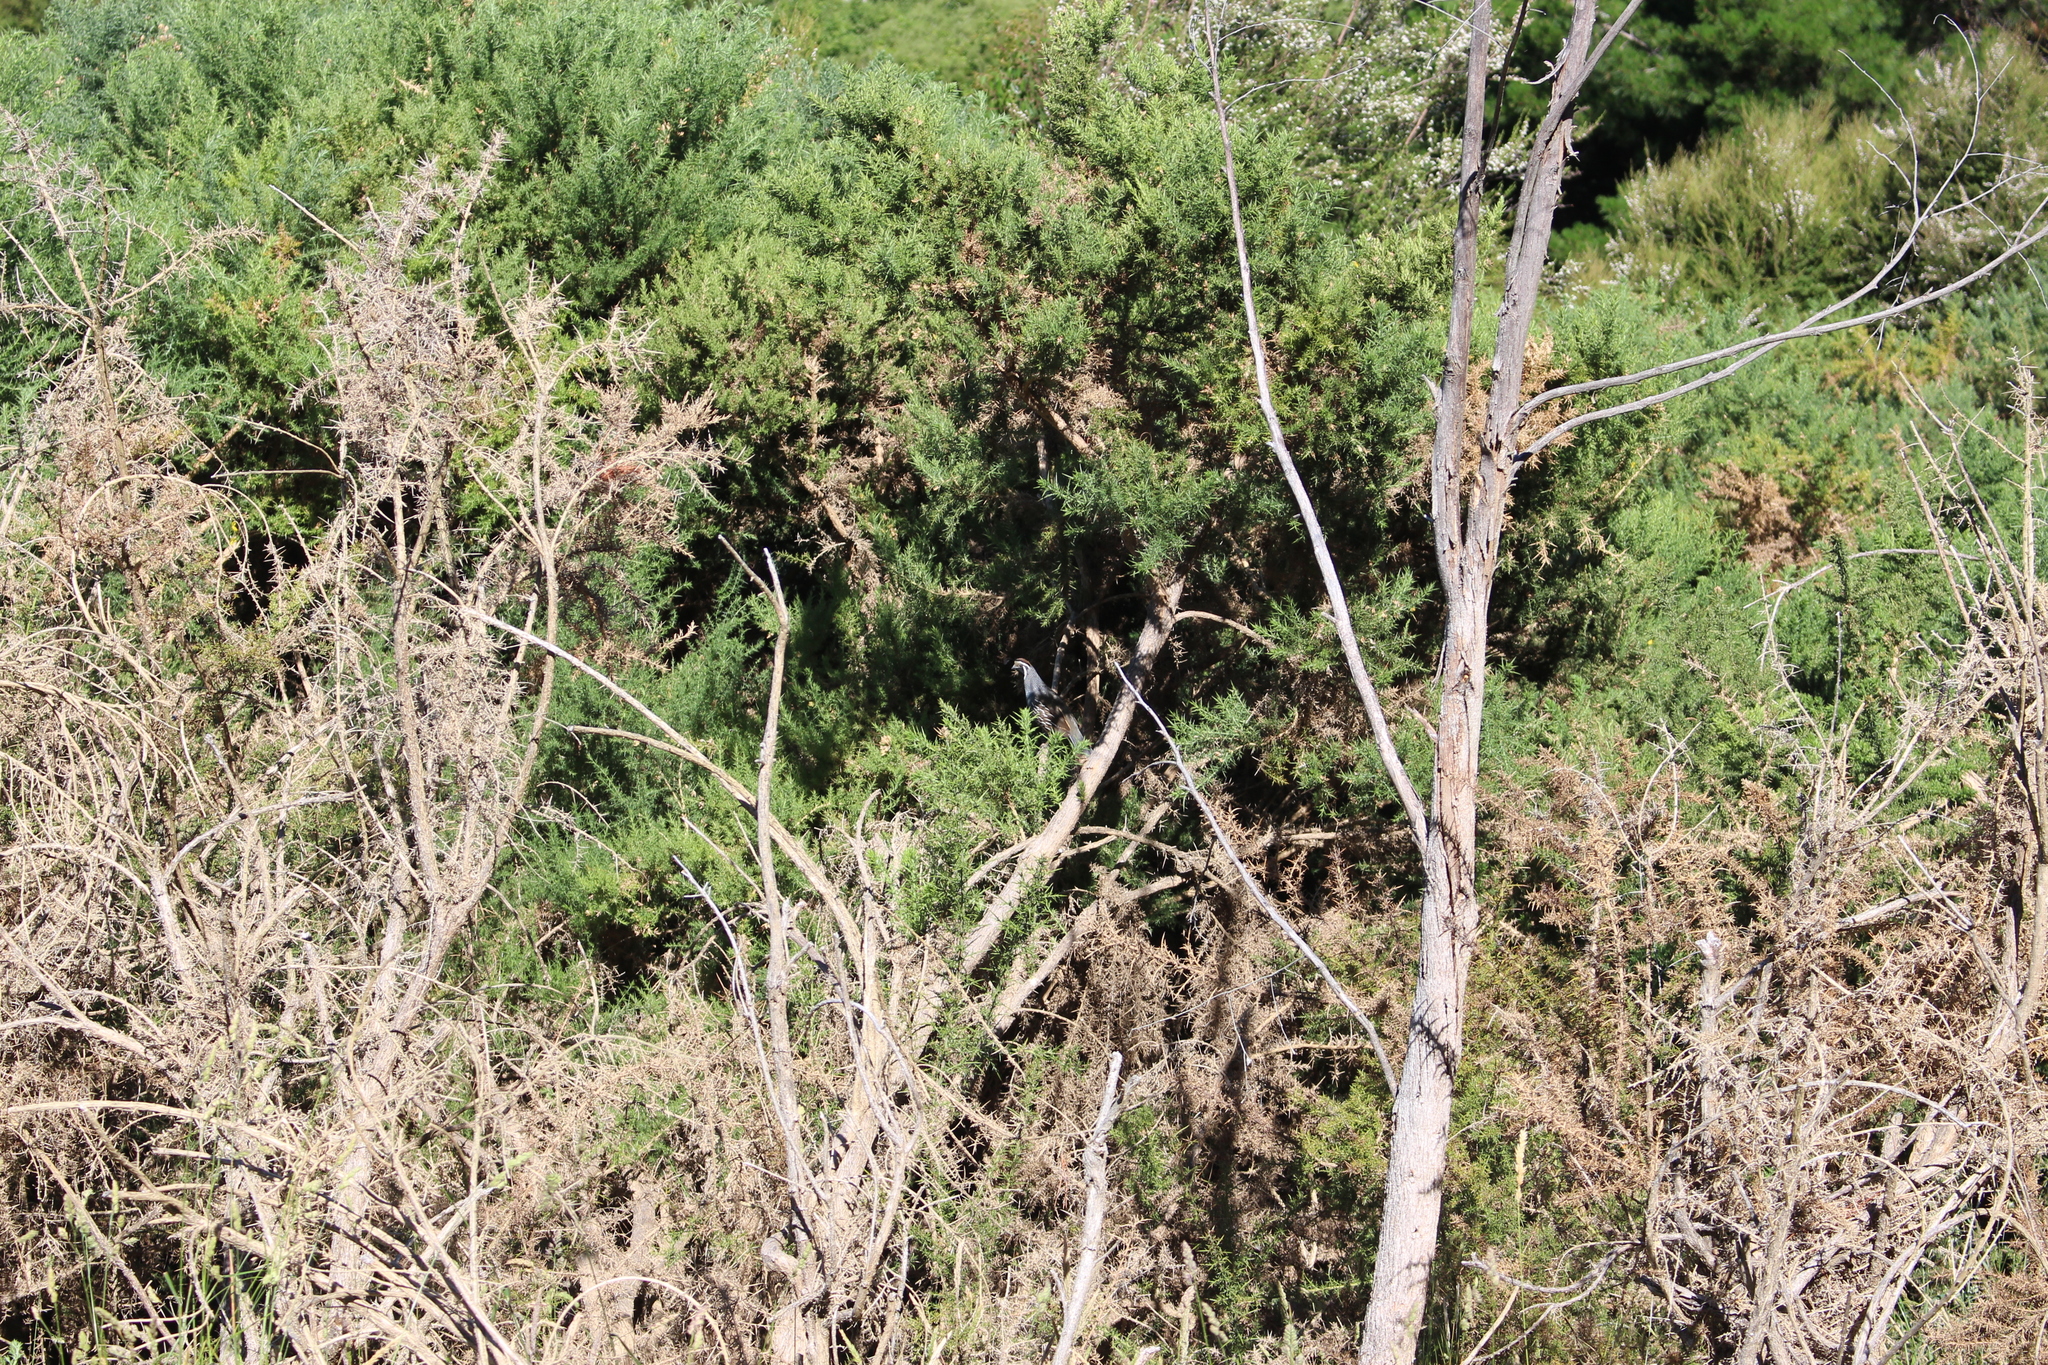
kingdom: Animalia
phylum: Chordata
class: Aves
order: Galliformes
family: Odontophoridae
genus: Callipepla
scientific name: Callipepla californica
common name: California quail
